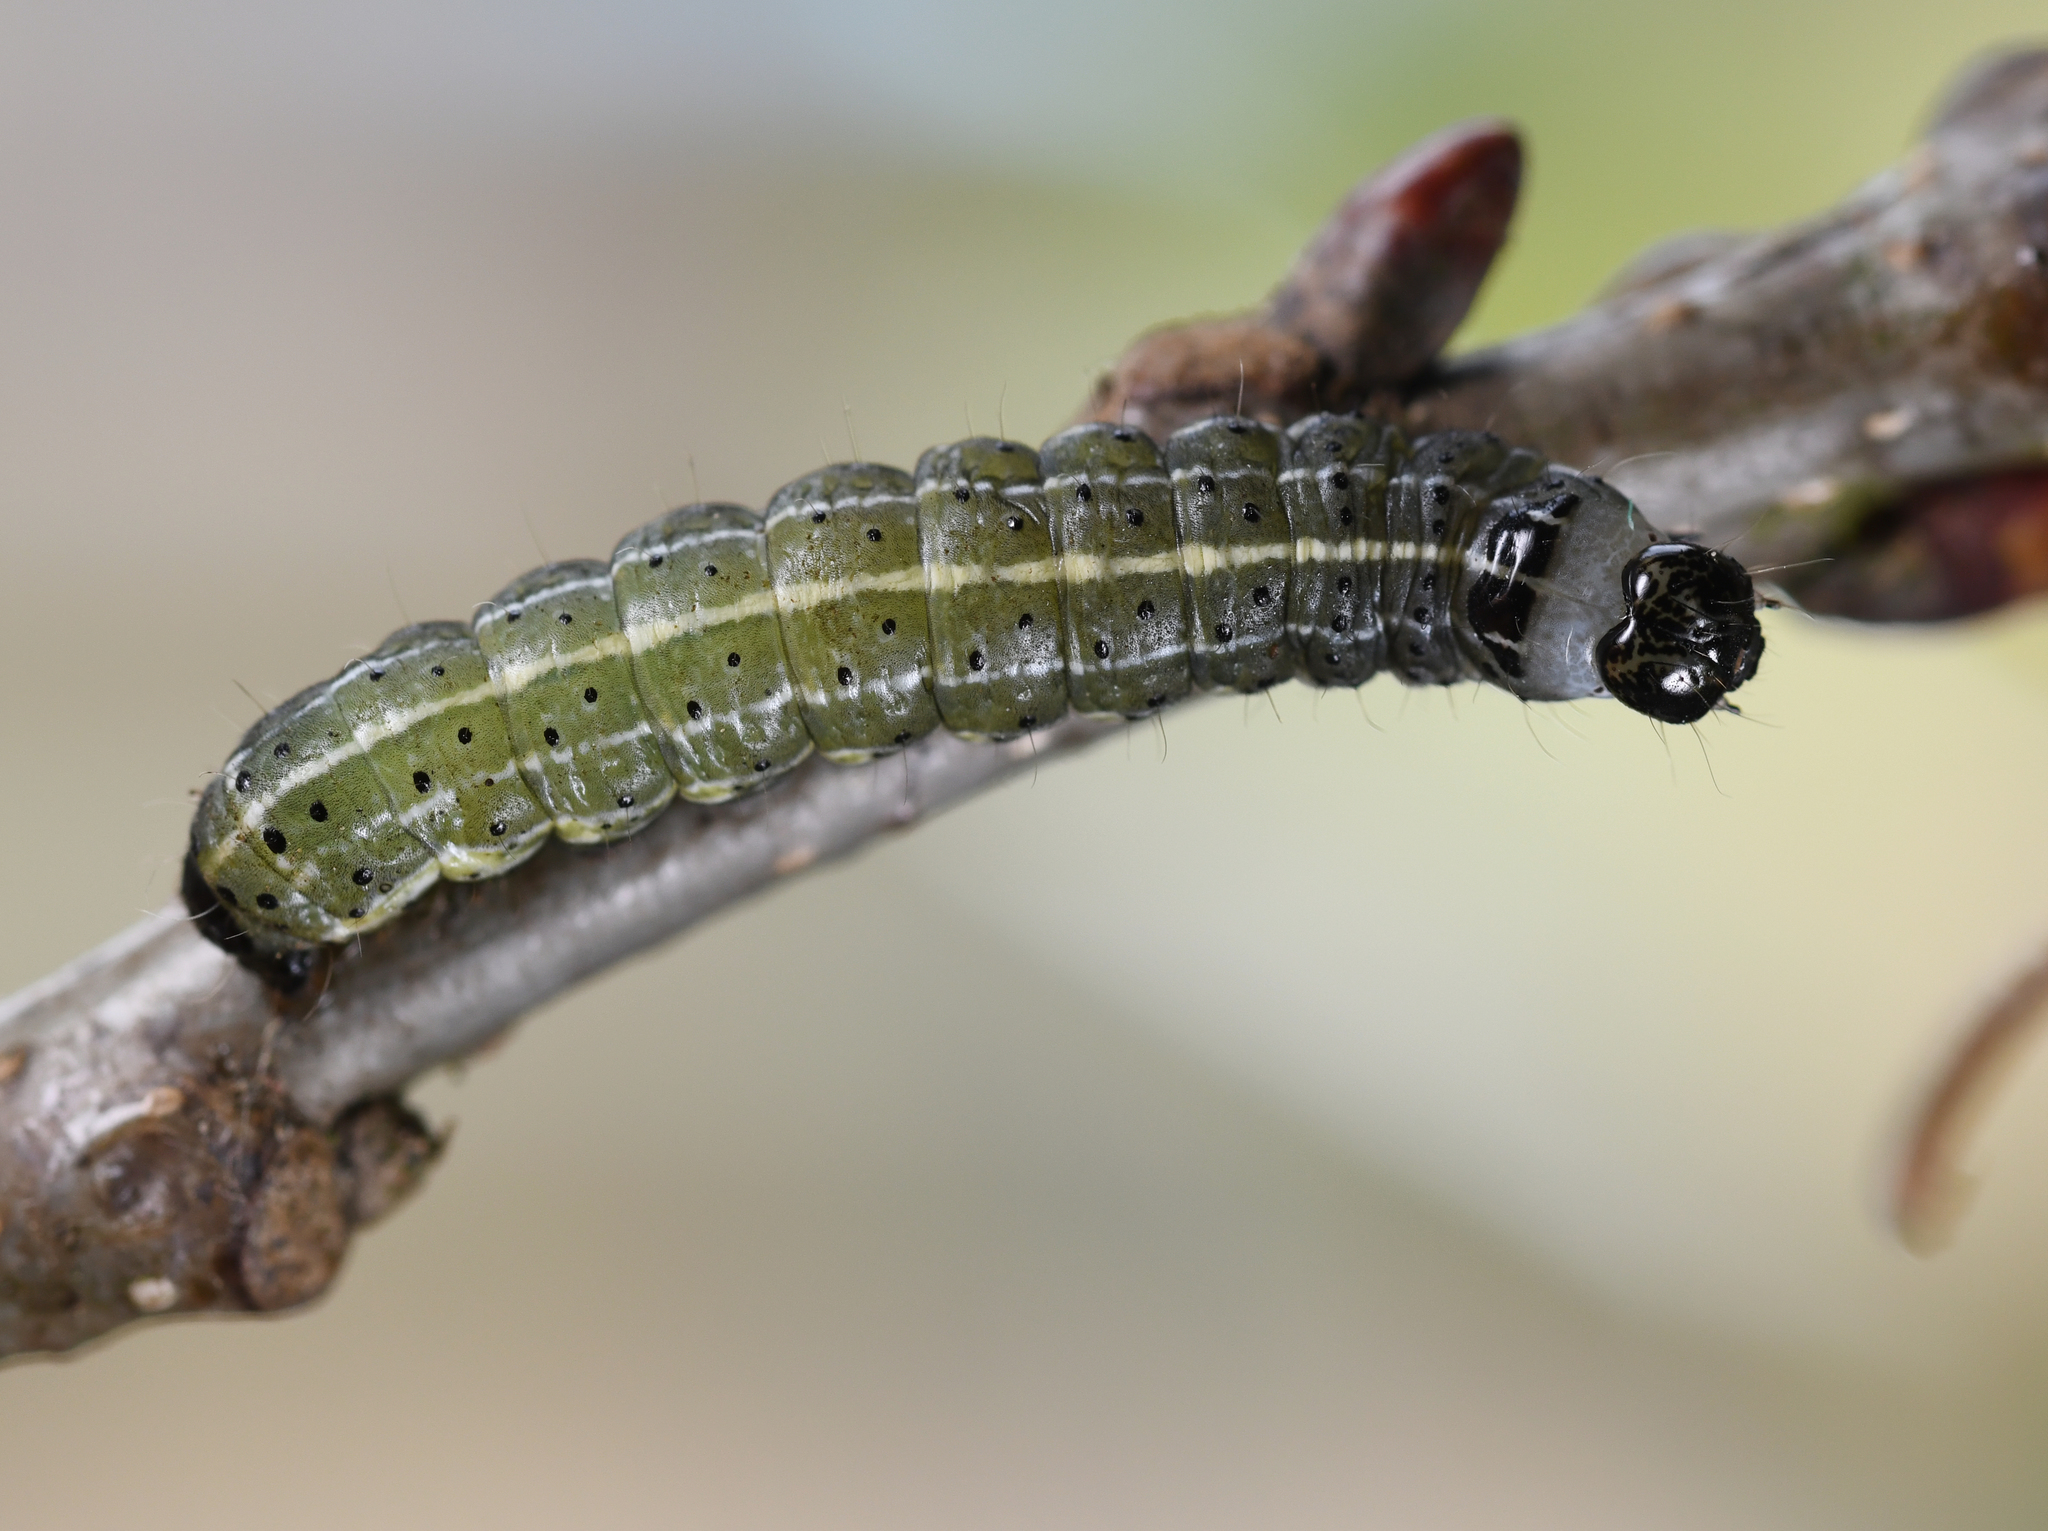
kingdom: Animalia
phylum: Arthropoda
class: Insecta
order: Lepidoptera
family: Noctuidae
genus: Orthosia
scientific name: Orthosia cruda
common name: Small quaker
